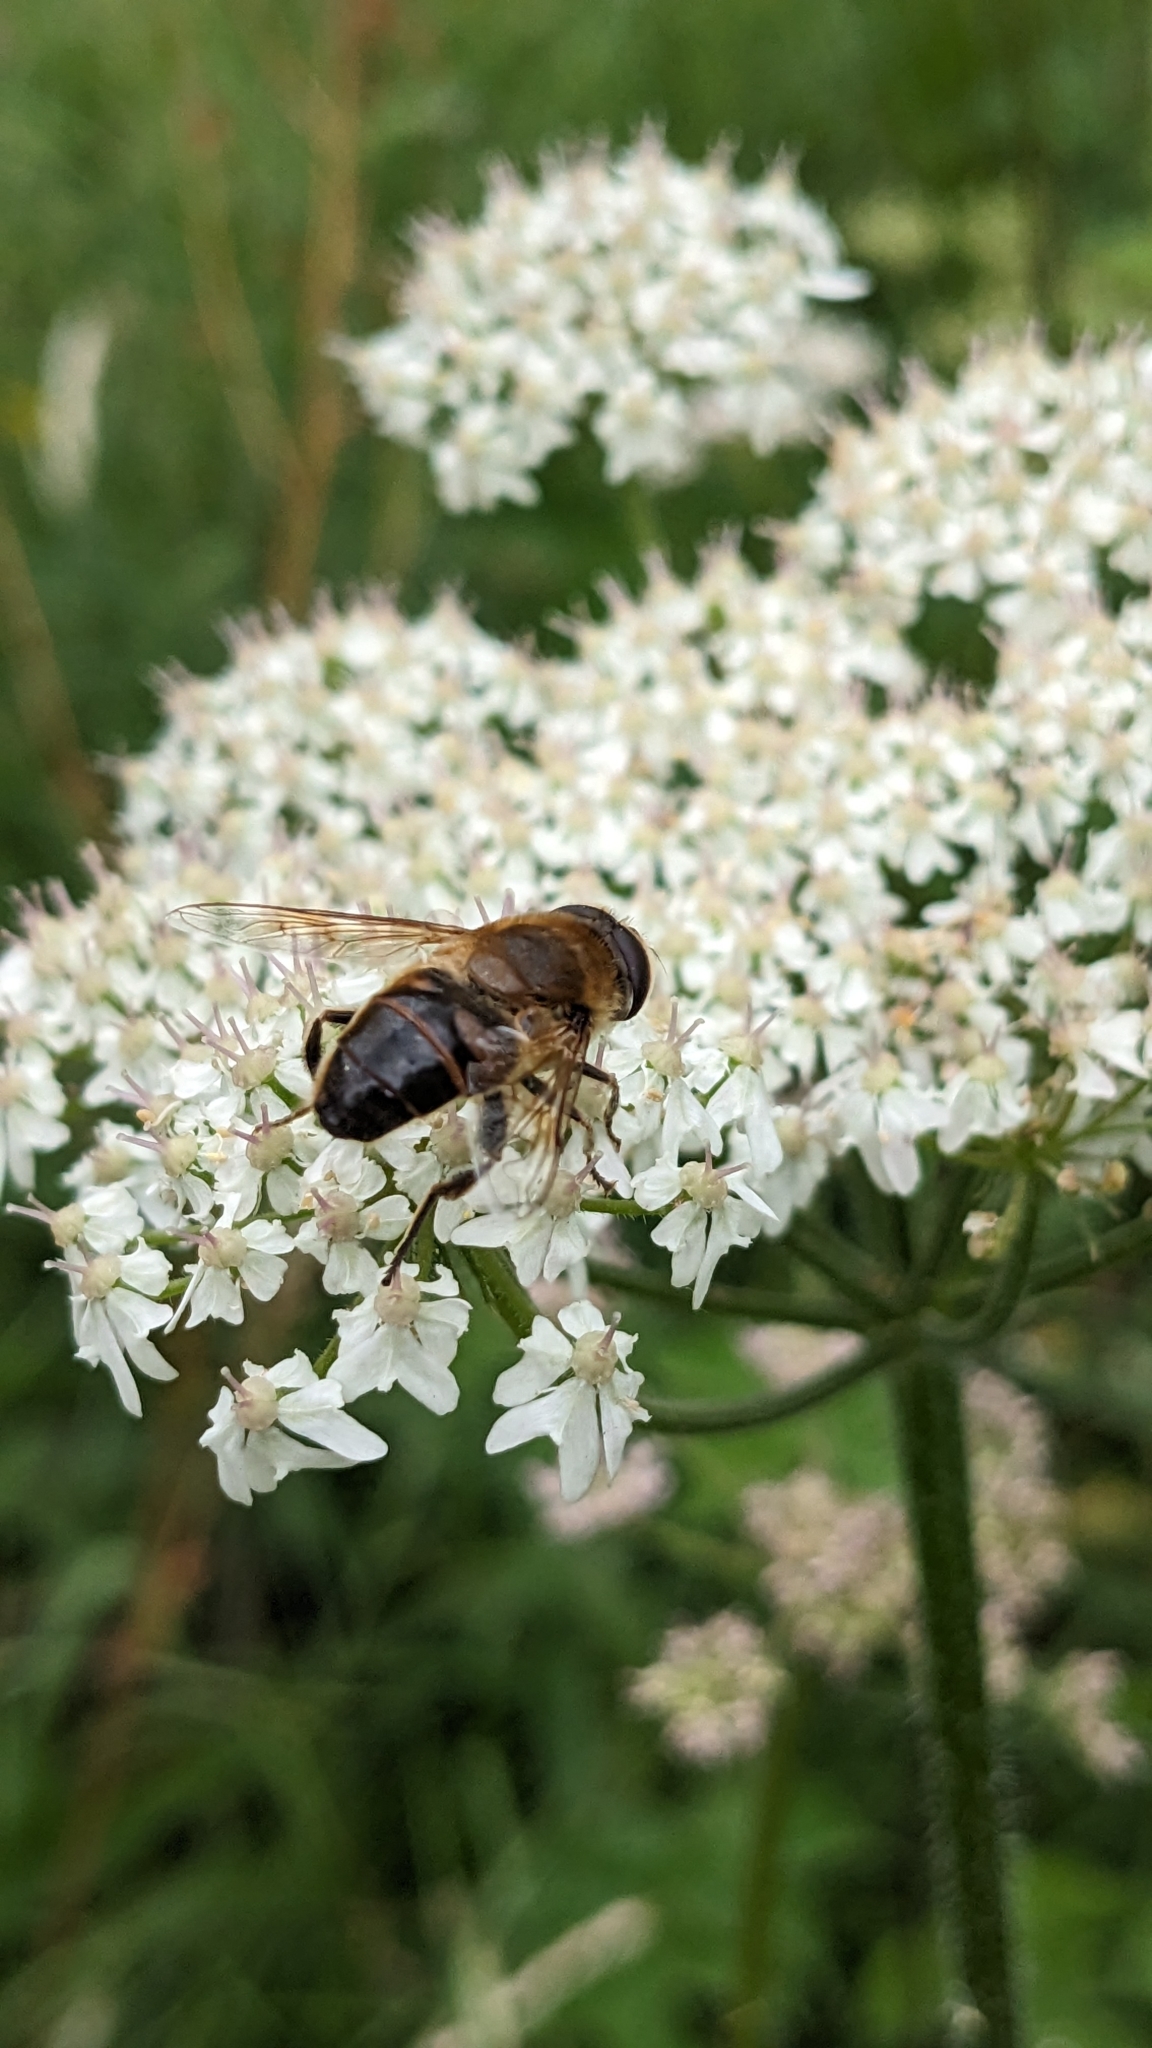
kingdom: Animalia
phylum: Arthropoda
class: Insecta
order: Diptera
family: Syrphidae
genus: Eristalis
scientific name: Eristalis tenax
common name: Drone fly
